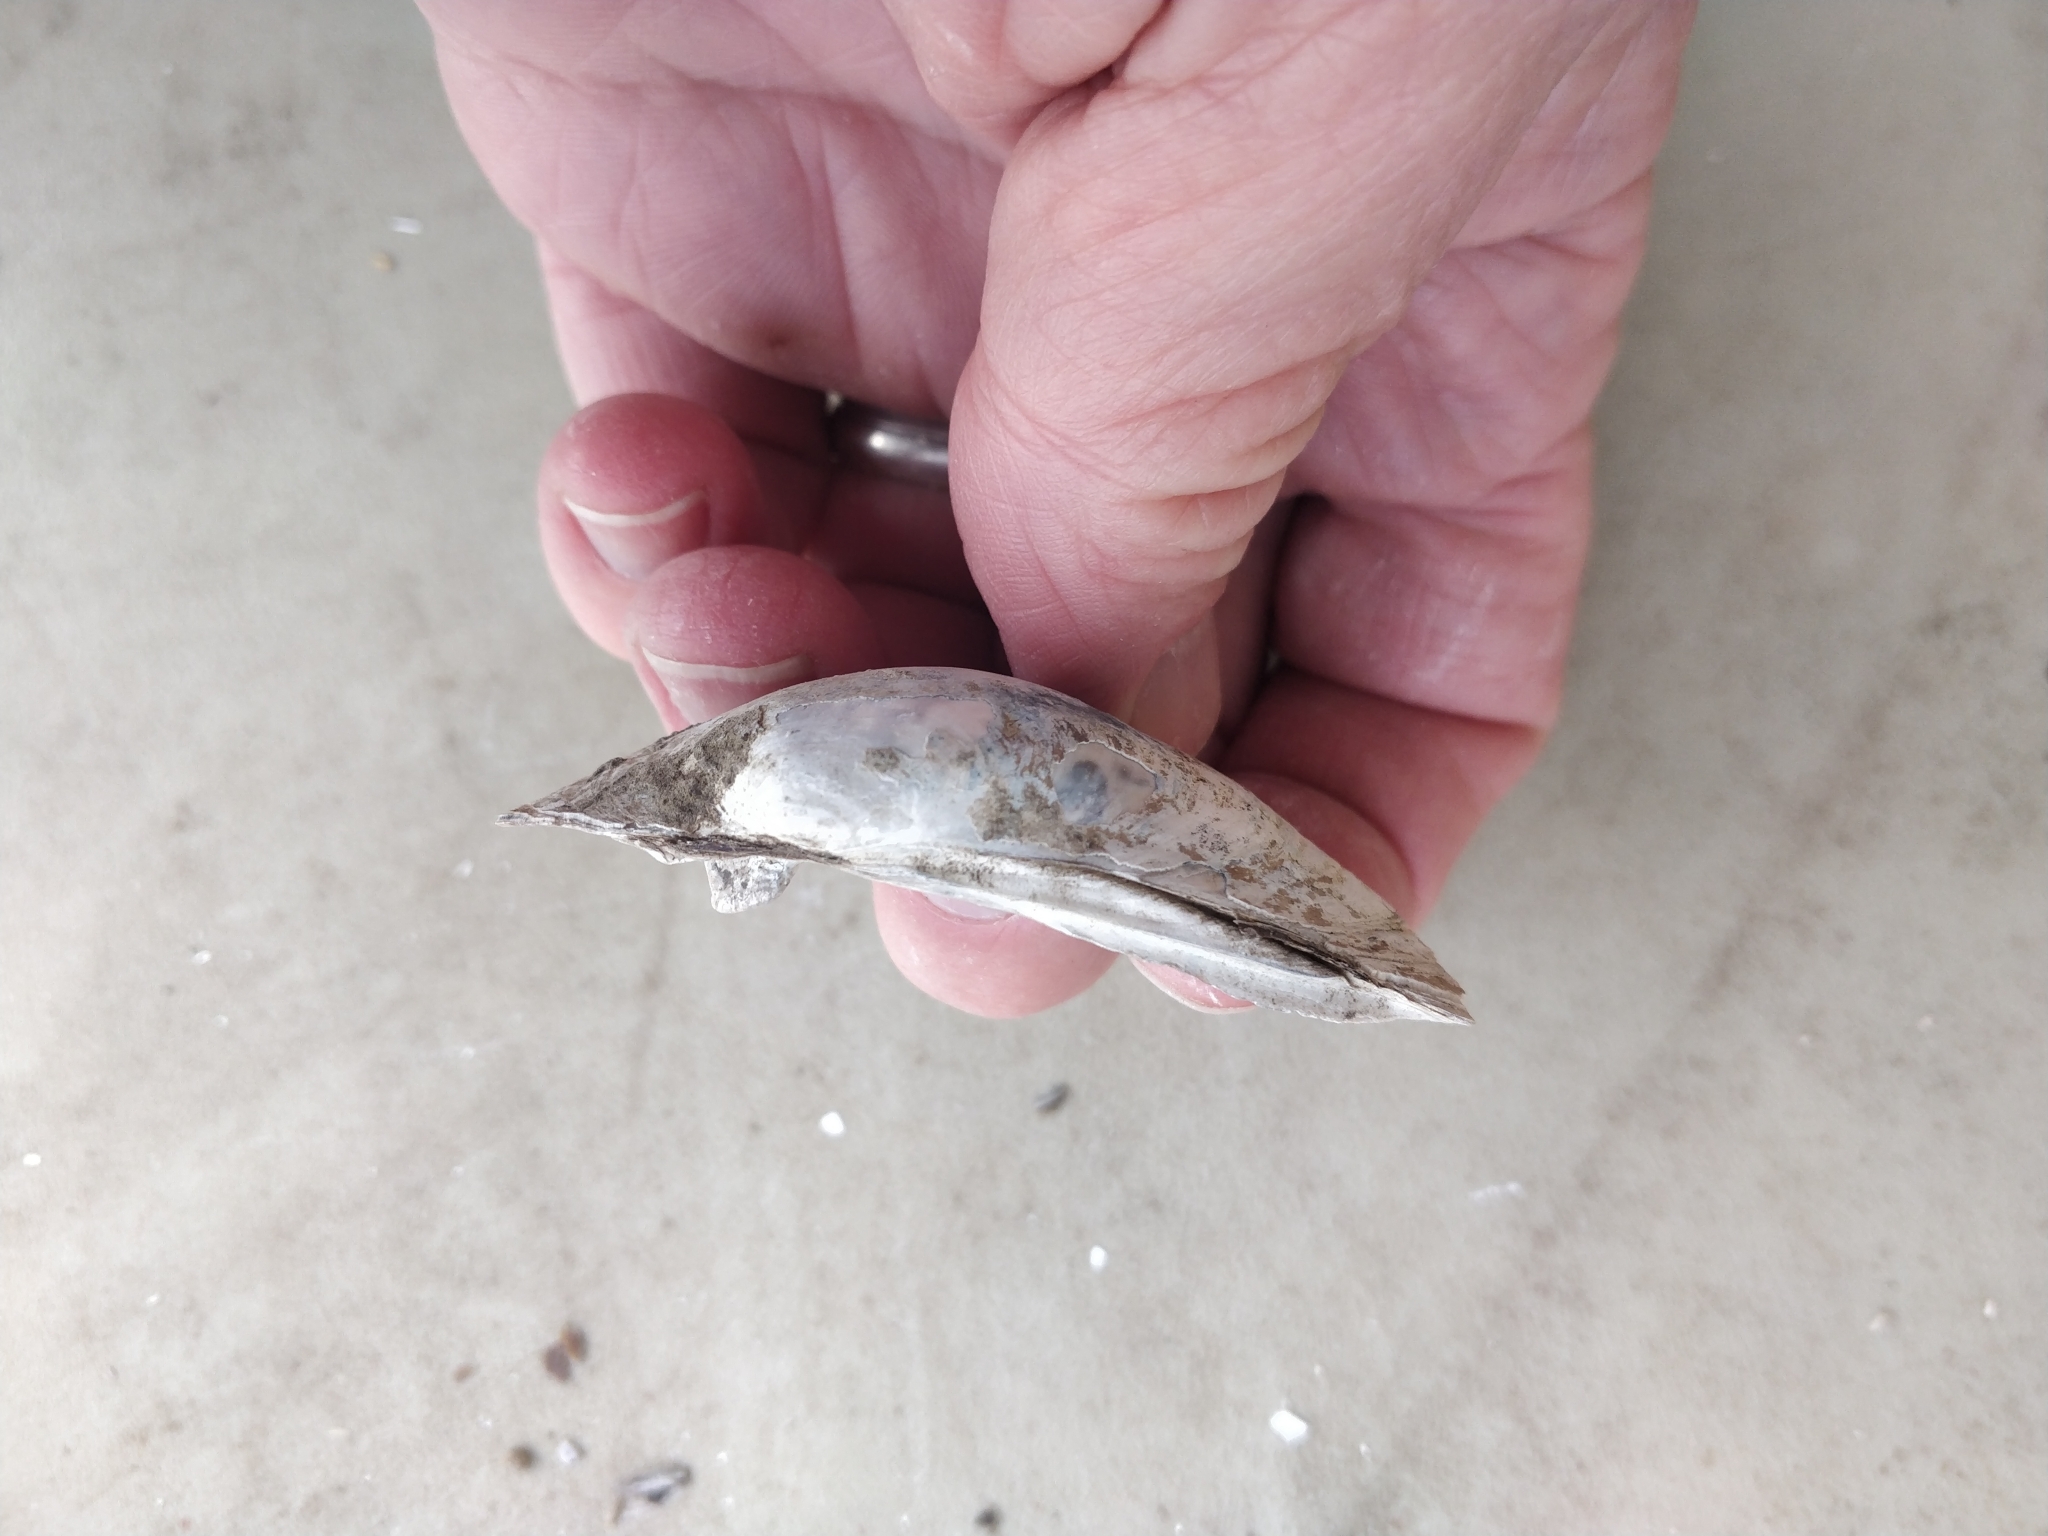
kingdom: Animalia
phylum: Mollusca
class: Bivalvia
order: Unionida
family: Unionidae
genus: Lampsilis
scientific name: Lampsilis cardium
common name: Plain pocketbook
